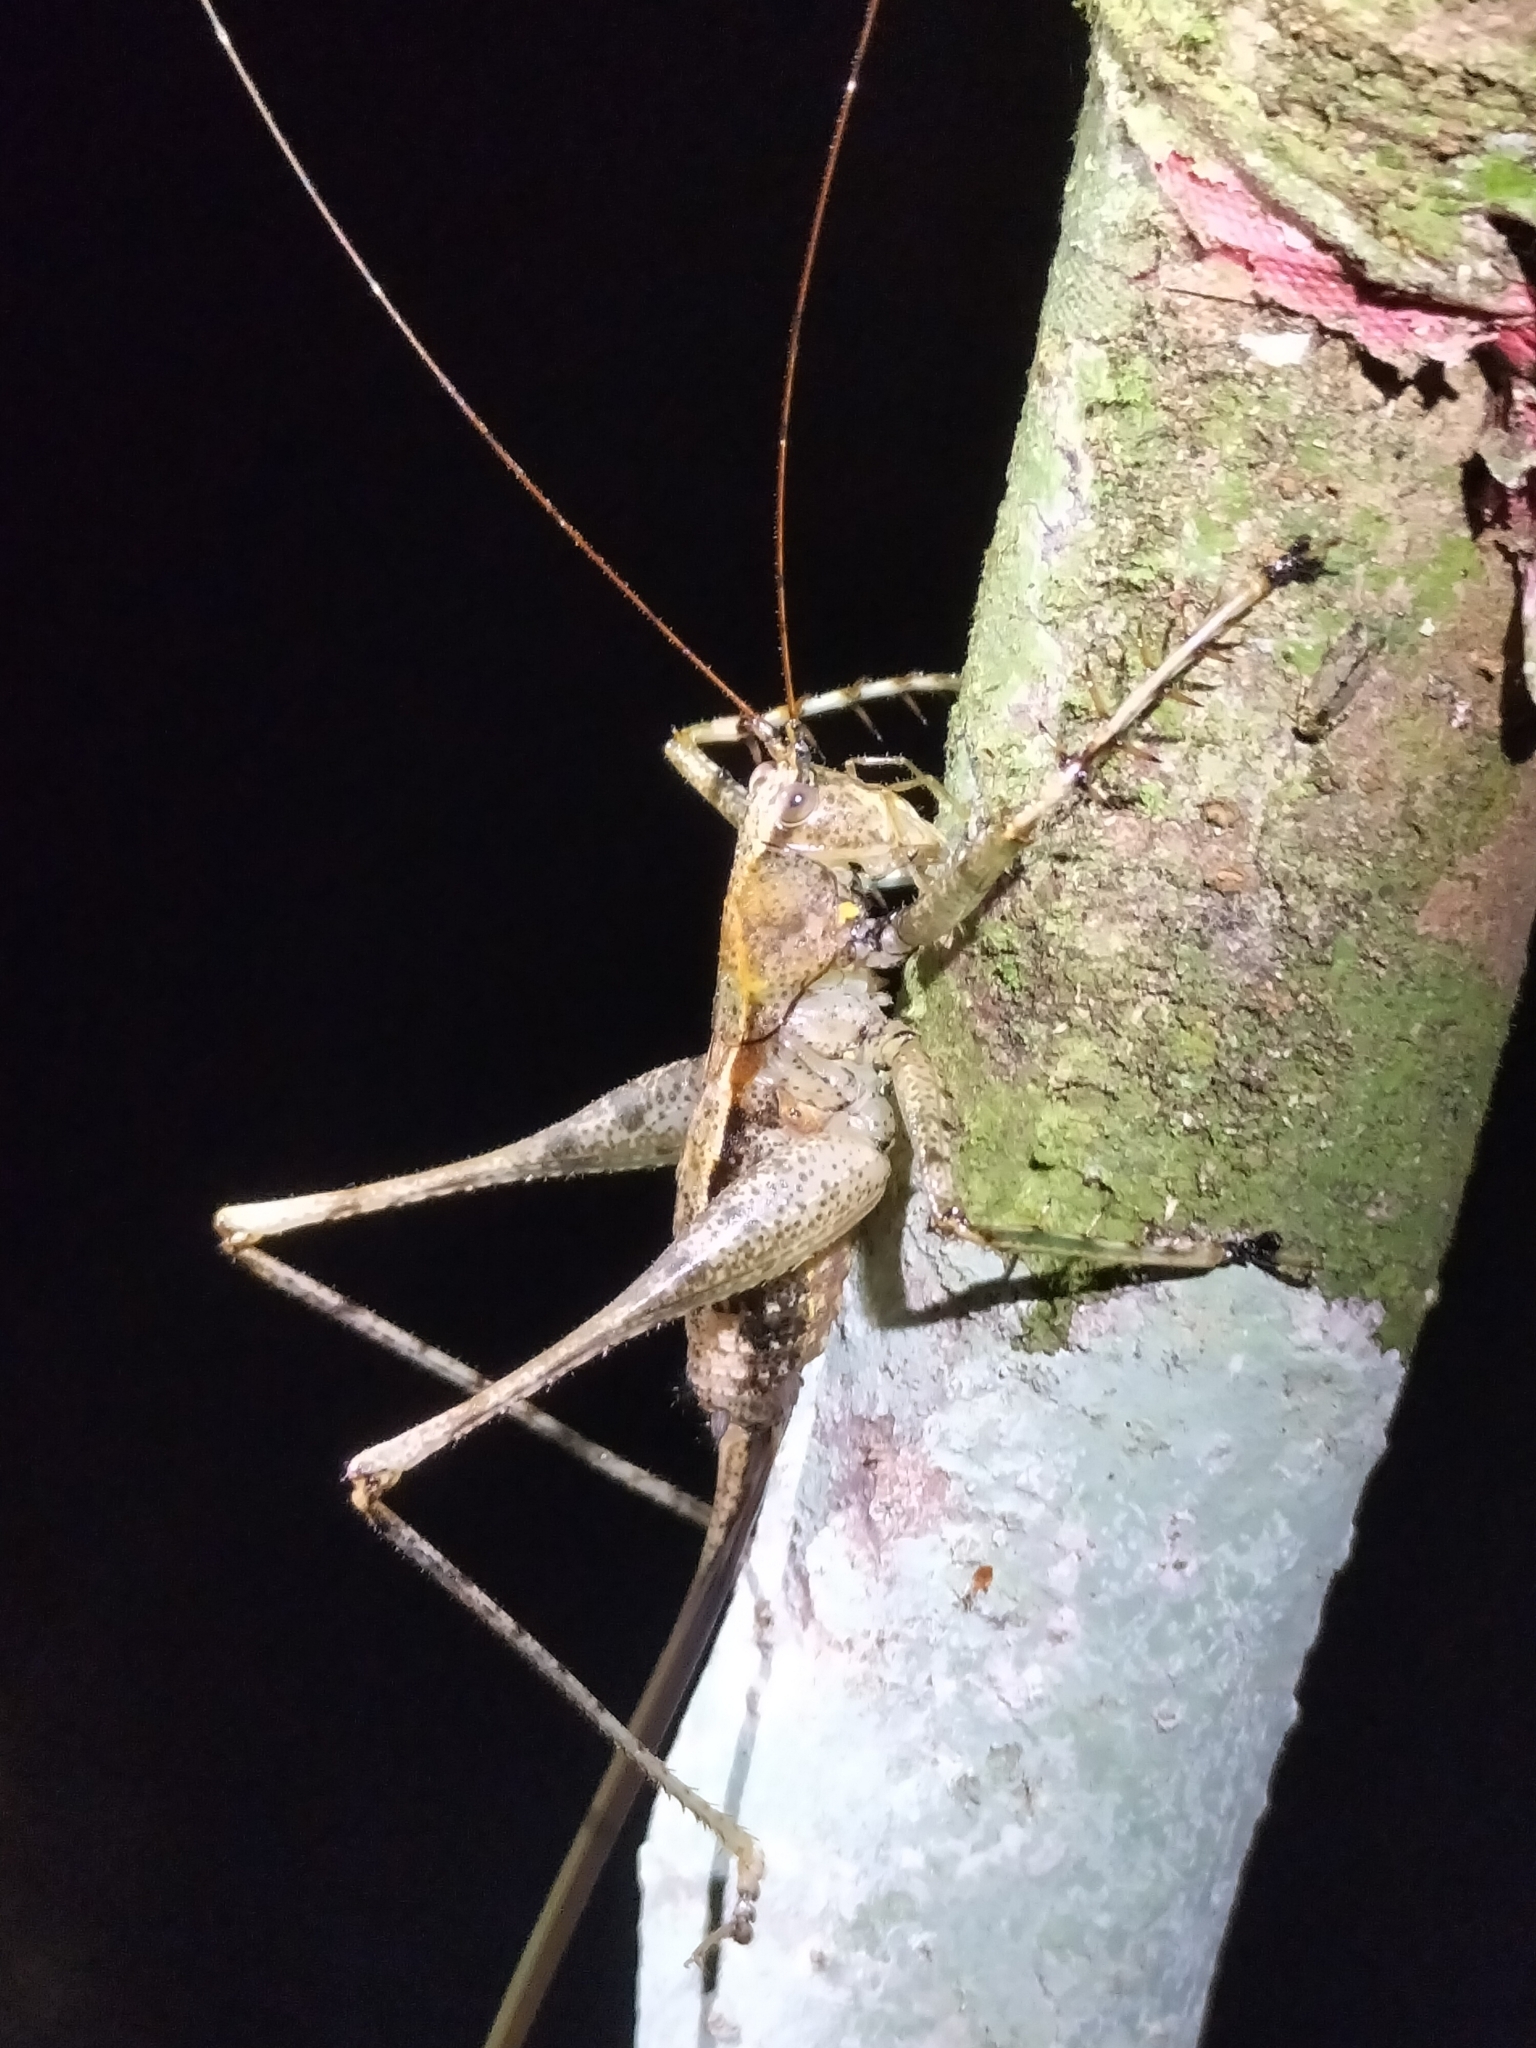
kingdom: Animalia
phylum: Arthropoda
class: Insecta
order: Orthoptera
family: Tettigoniidae
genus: Xingbaoia
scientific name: Xingbaoia karakara
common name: Jin's ginger katydid
